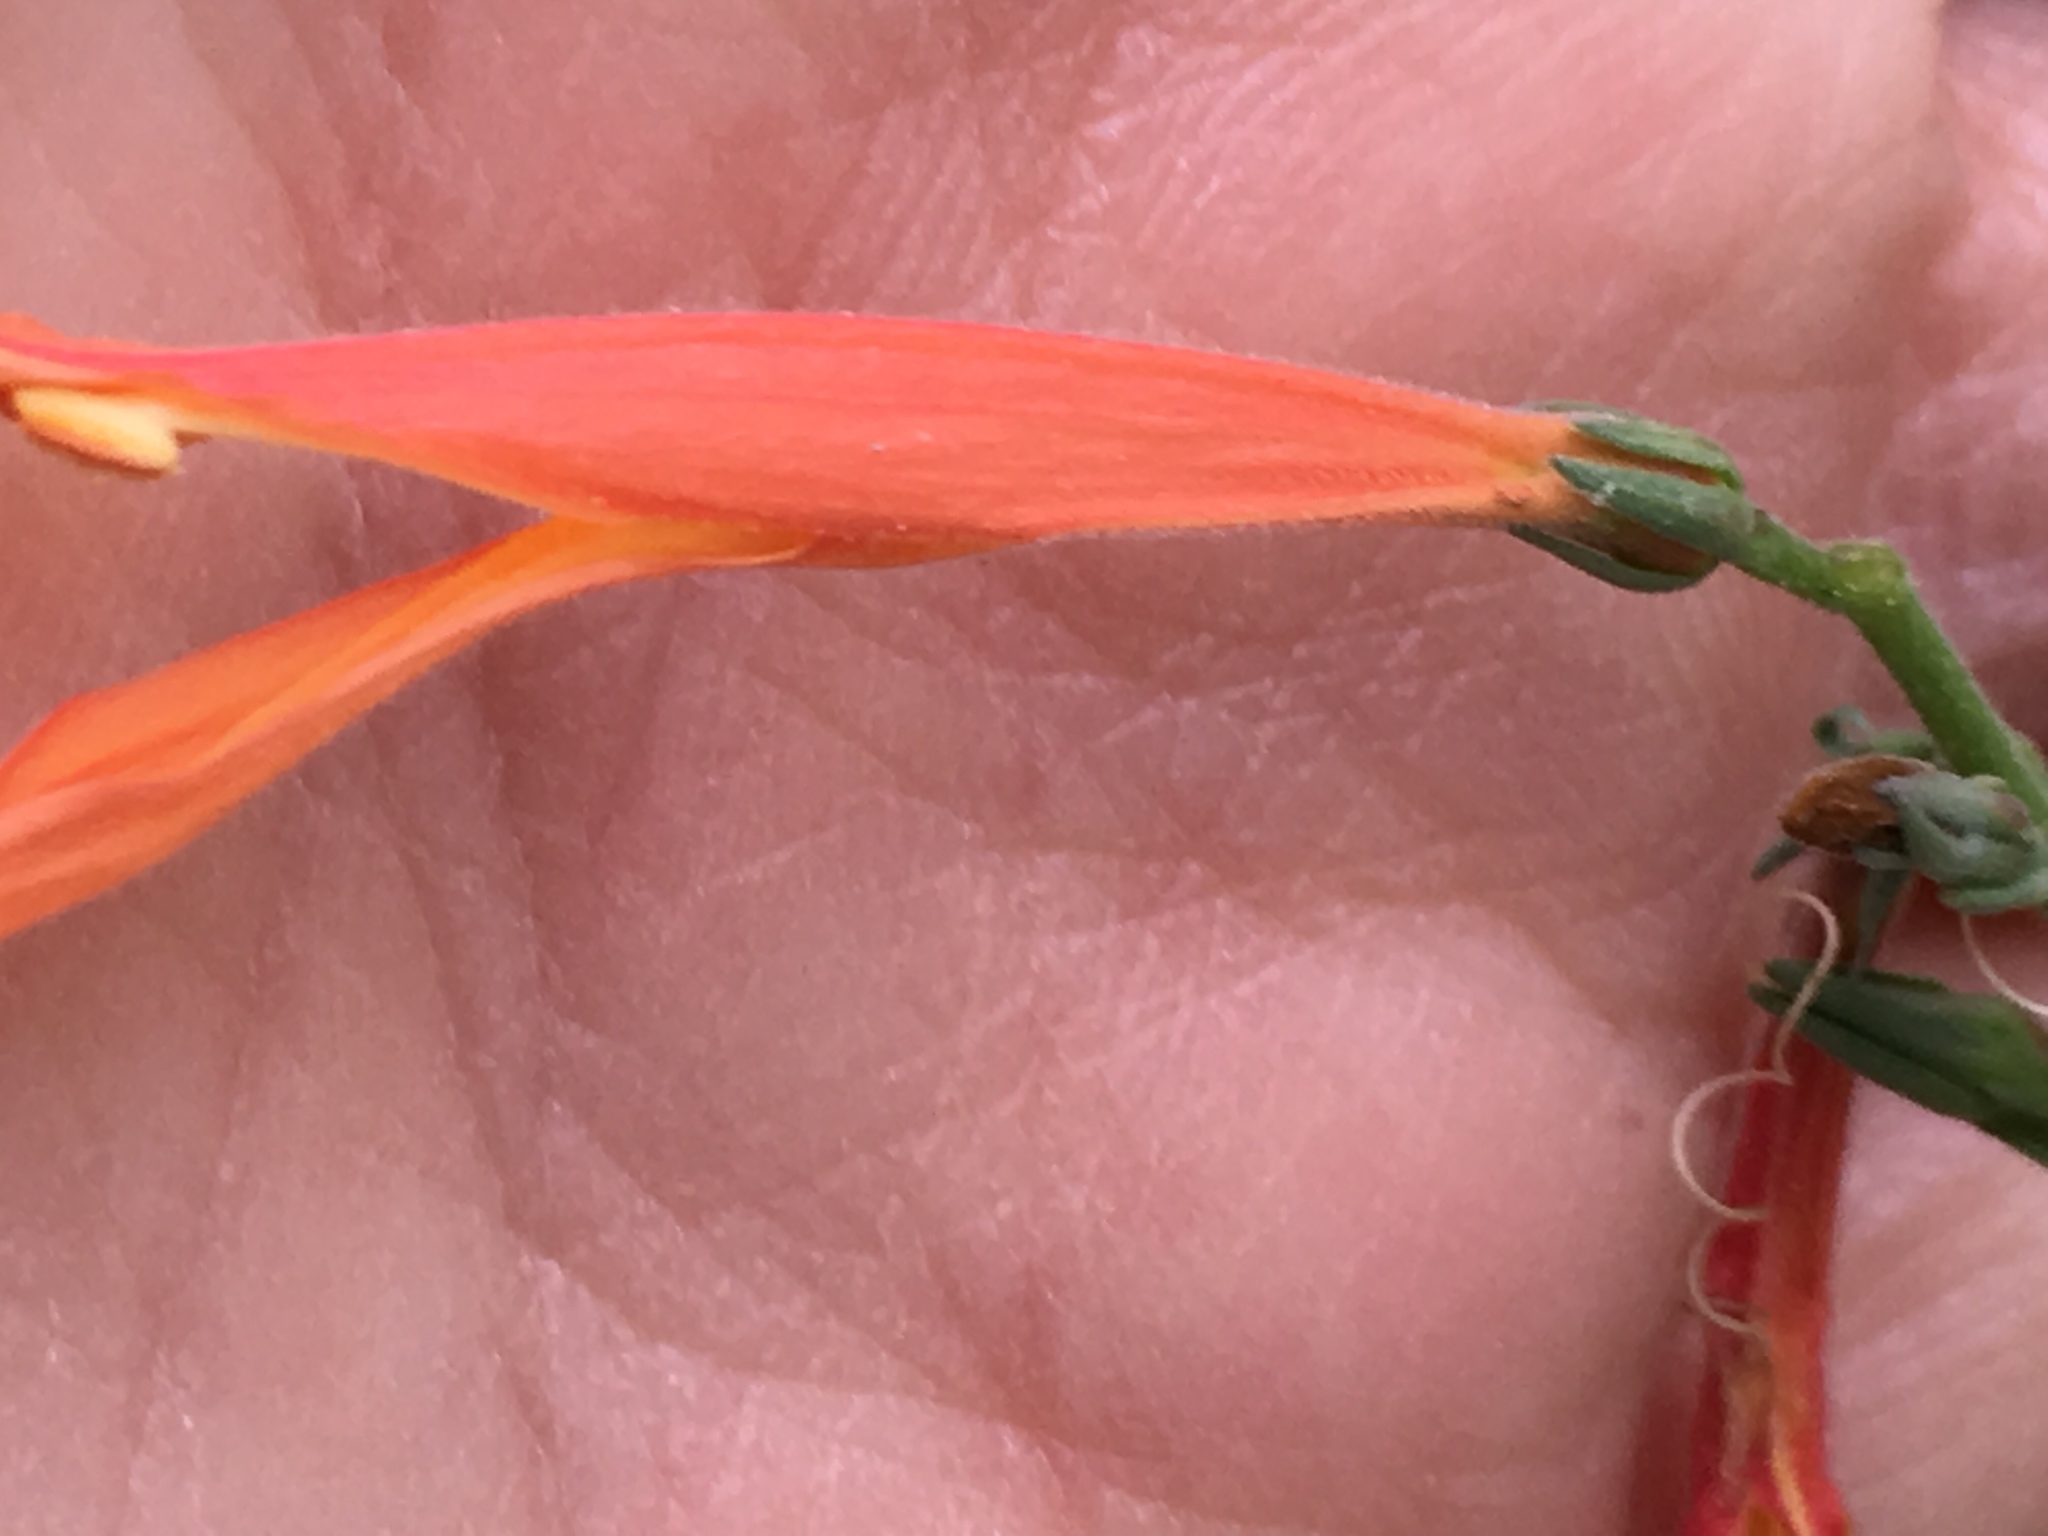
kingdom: Plantae
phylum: Tracheophyta
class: Magnoliopsida
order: Lamiales
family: Acanthaceae
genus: Justicia
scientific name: Justicia californica
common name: Chuparosa-honeysuckle
